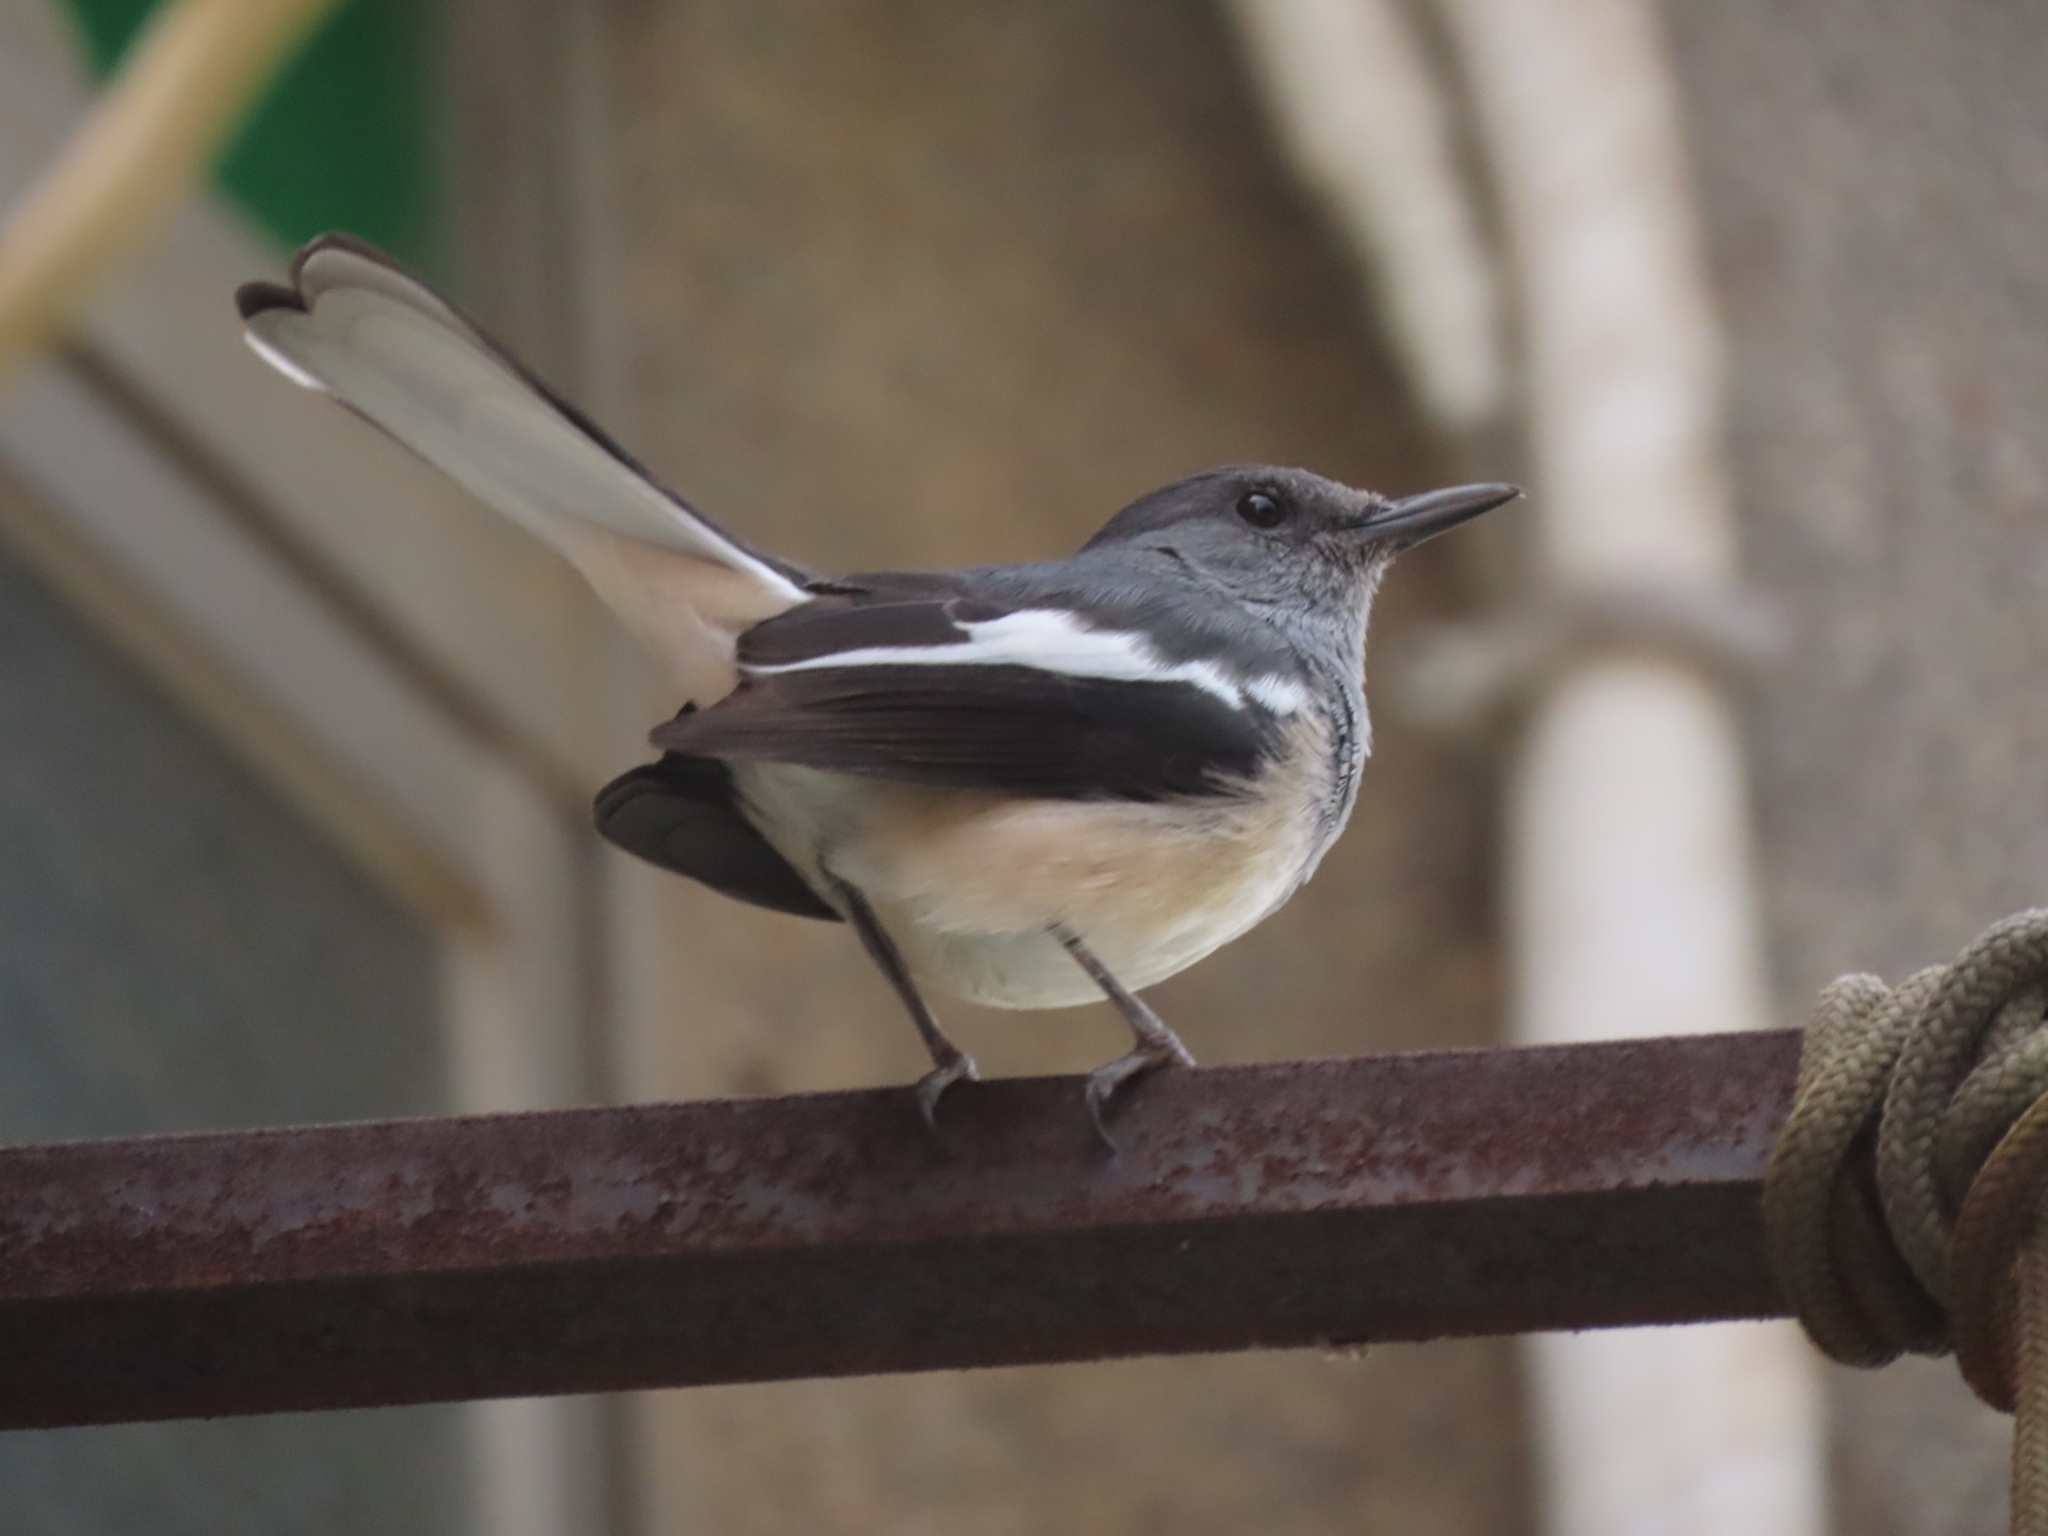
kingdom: Animalia
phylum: Chordata
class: Aves
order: Passeriformes
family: Muscicapidae
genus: Copsychus
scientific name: Copsychus saularis
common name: Oriental magpie-robin
